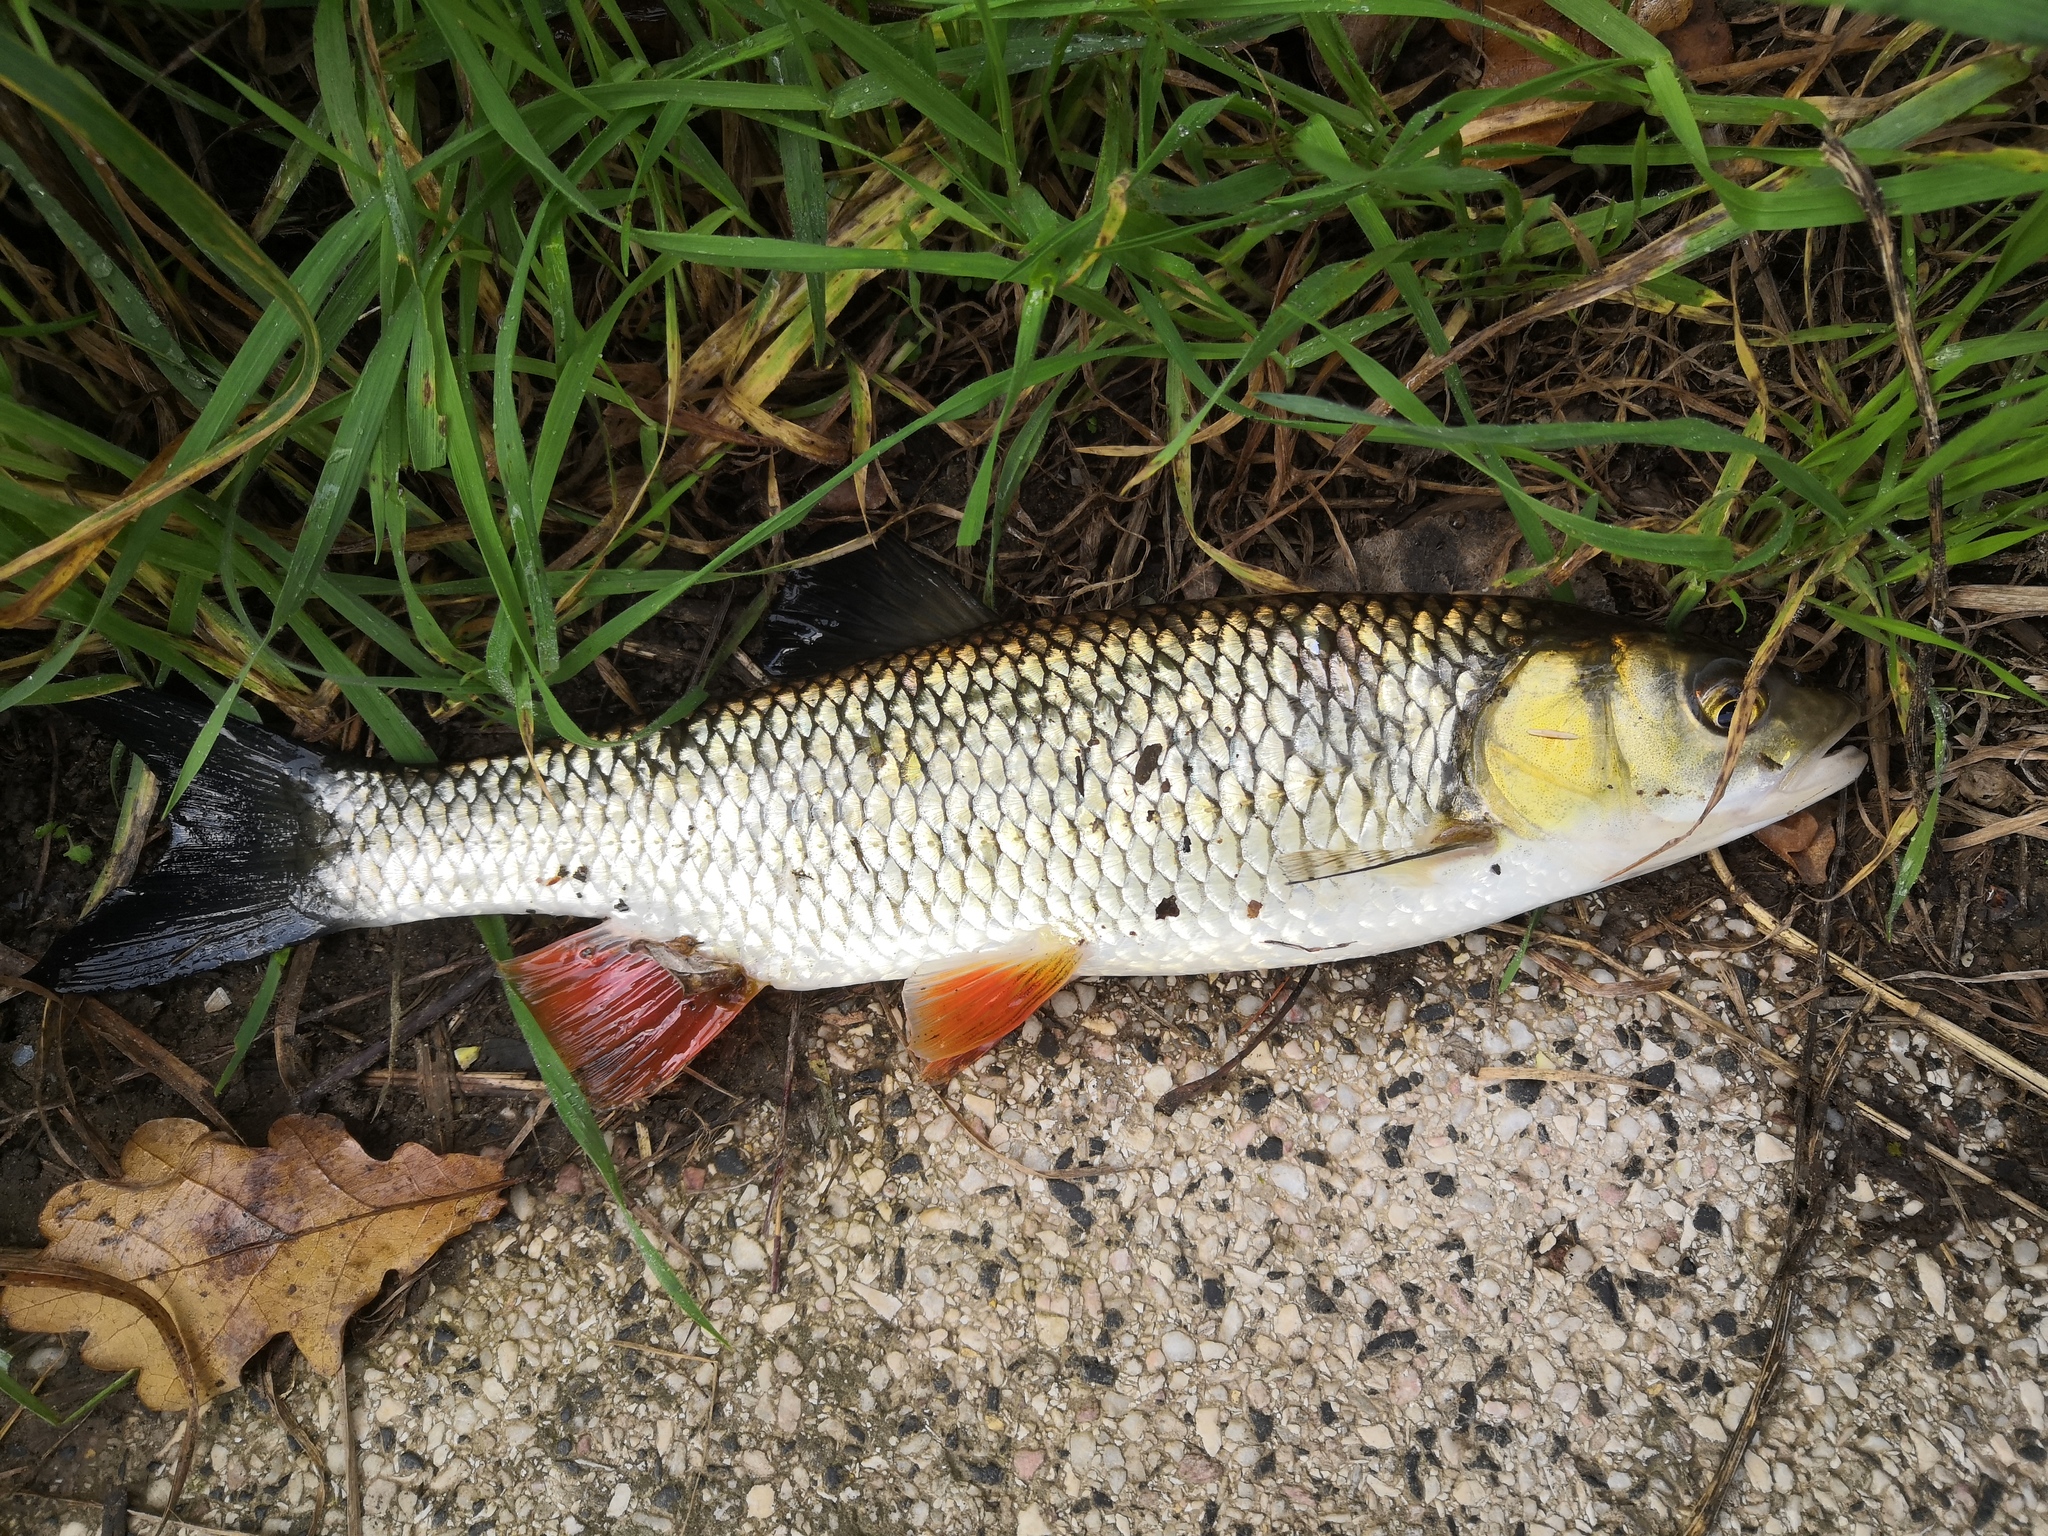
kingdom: Animalia
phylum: Chordata
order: Cypriniformes
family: Cyprinidae
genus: Squalius
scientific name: Squalius cephalus
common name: Chub
